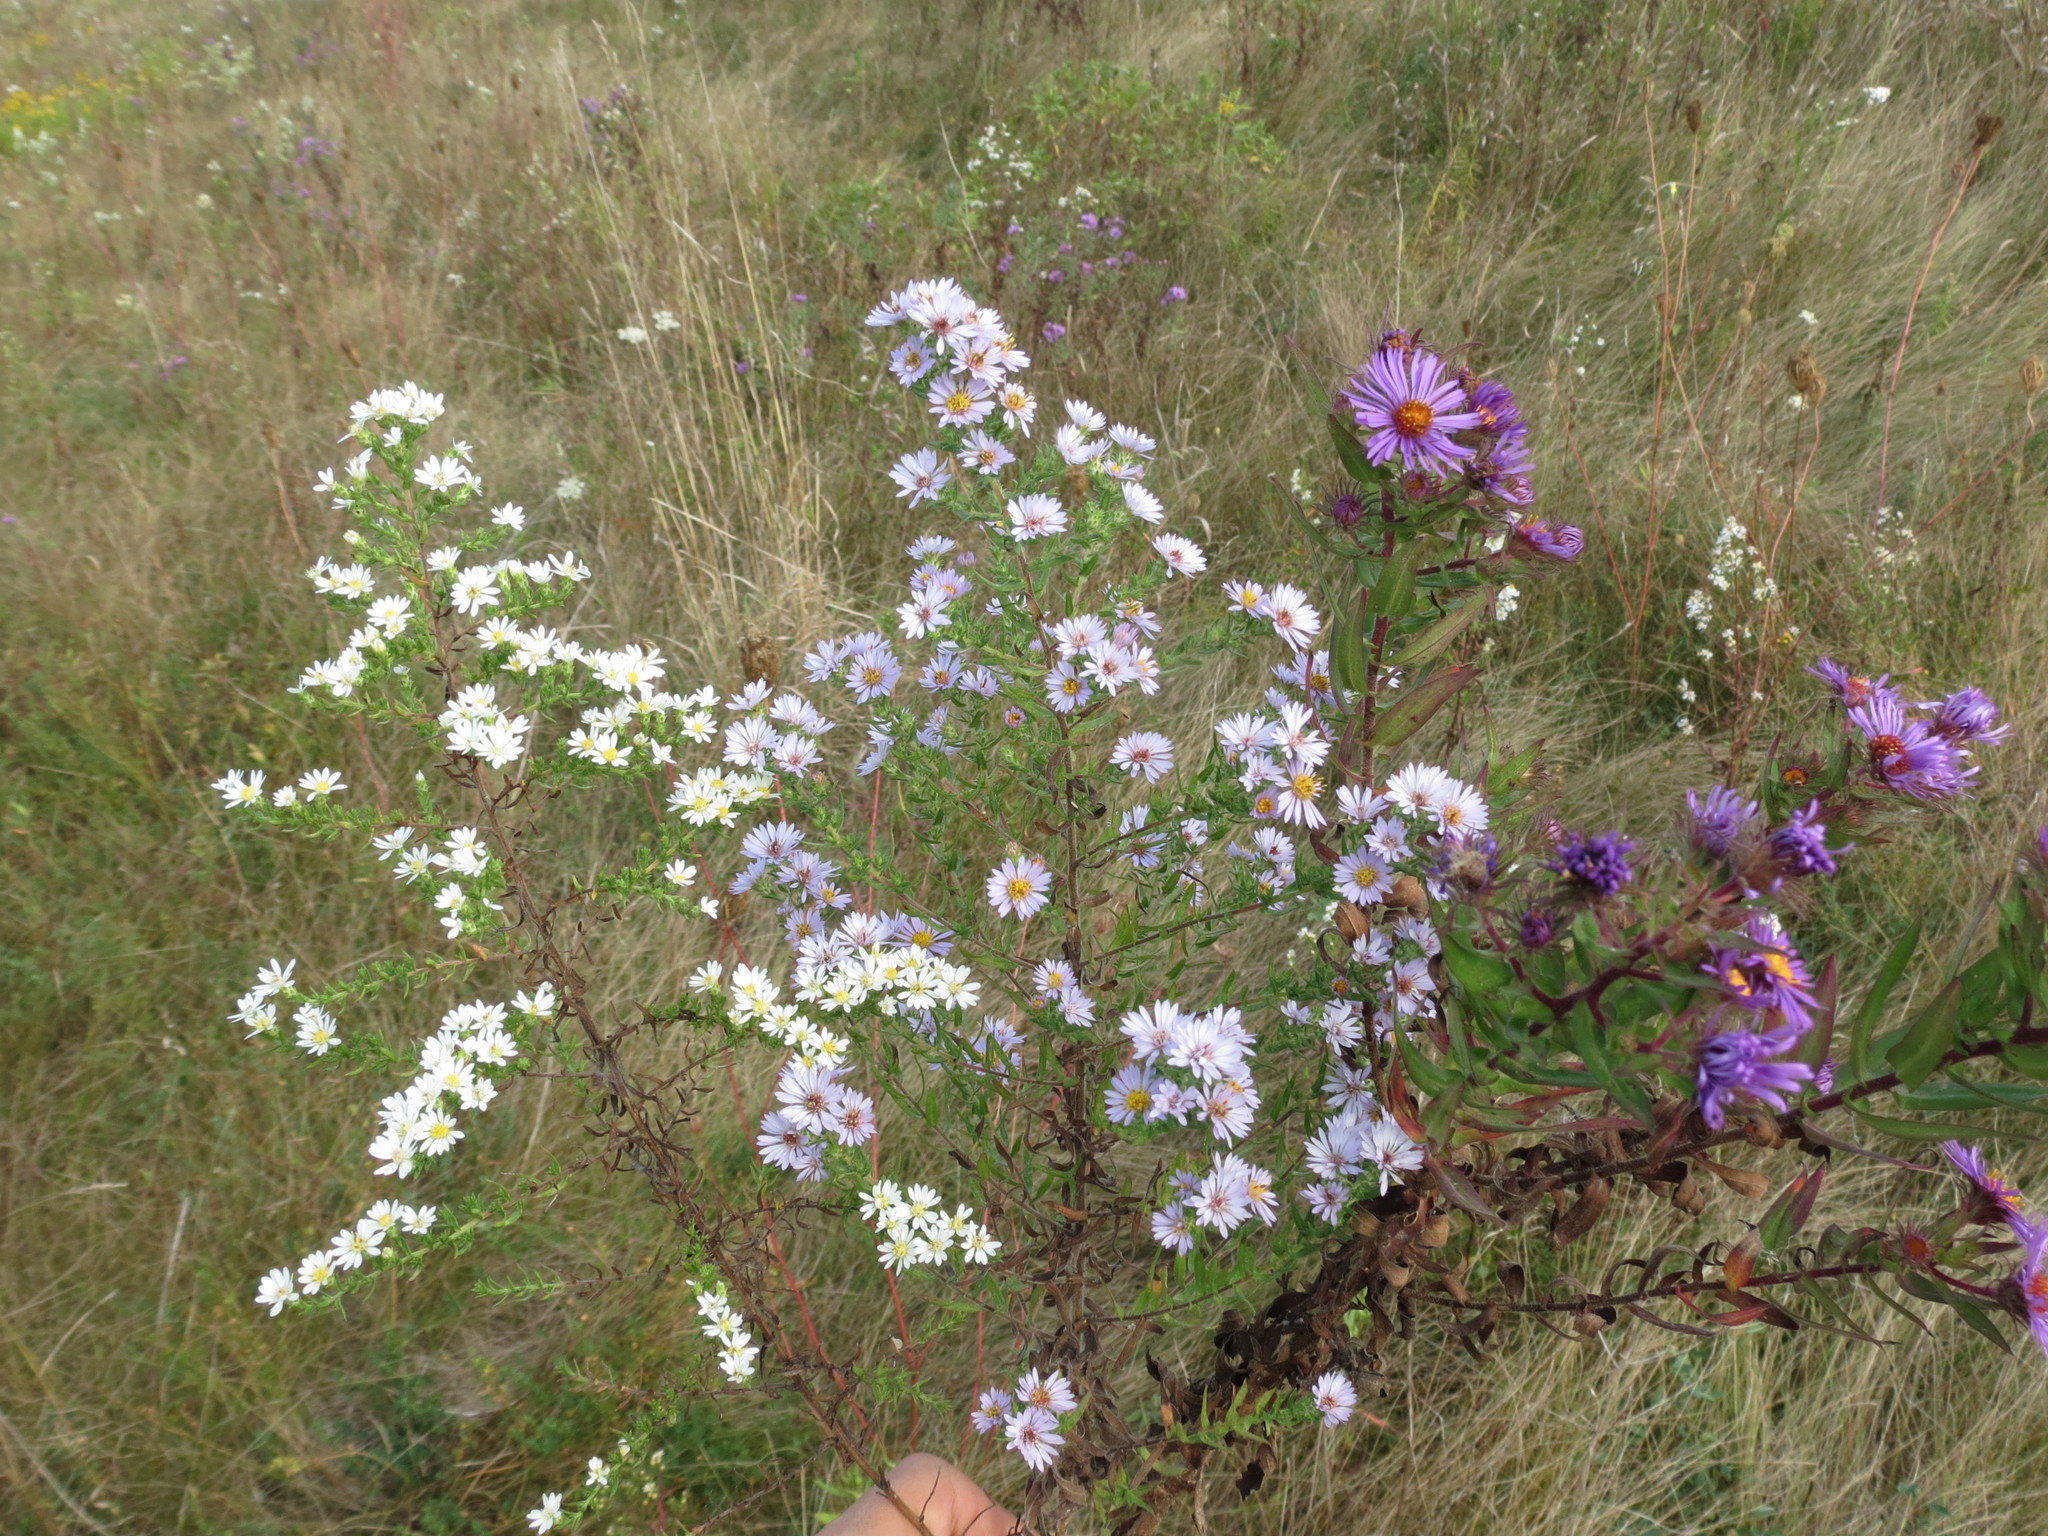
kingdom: Plantae
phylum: Tracheophyta
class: Magnoliopsida
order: Asterales
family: Asteraceae
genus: Symphyotrichum
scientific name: Symphyotrichum amethystinum
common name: Amethyst aster
